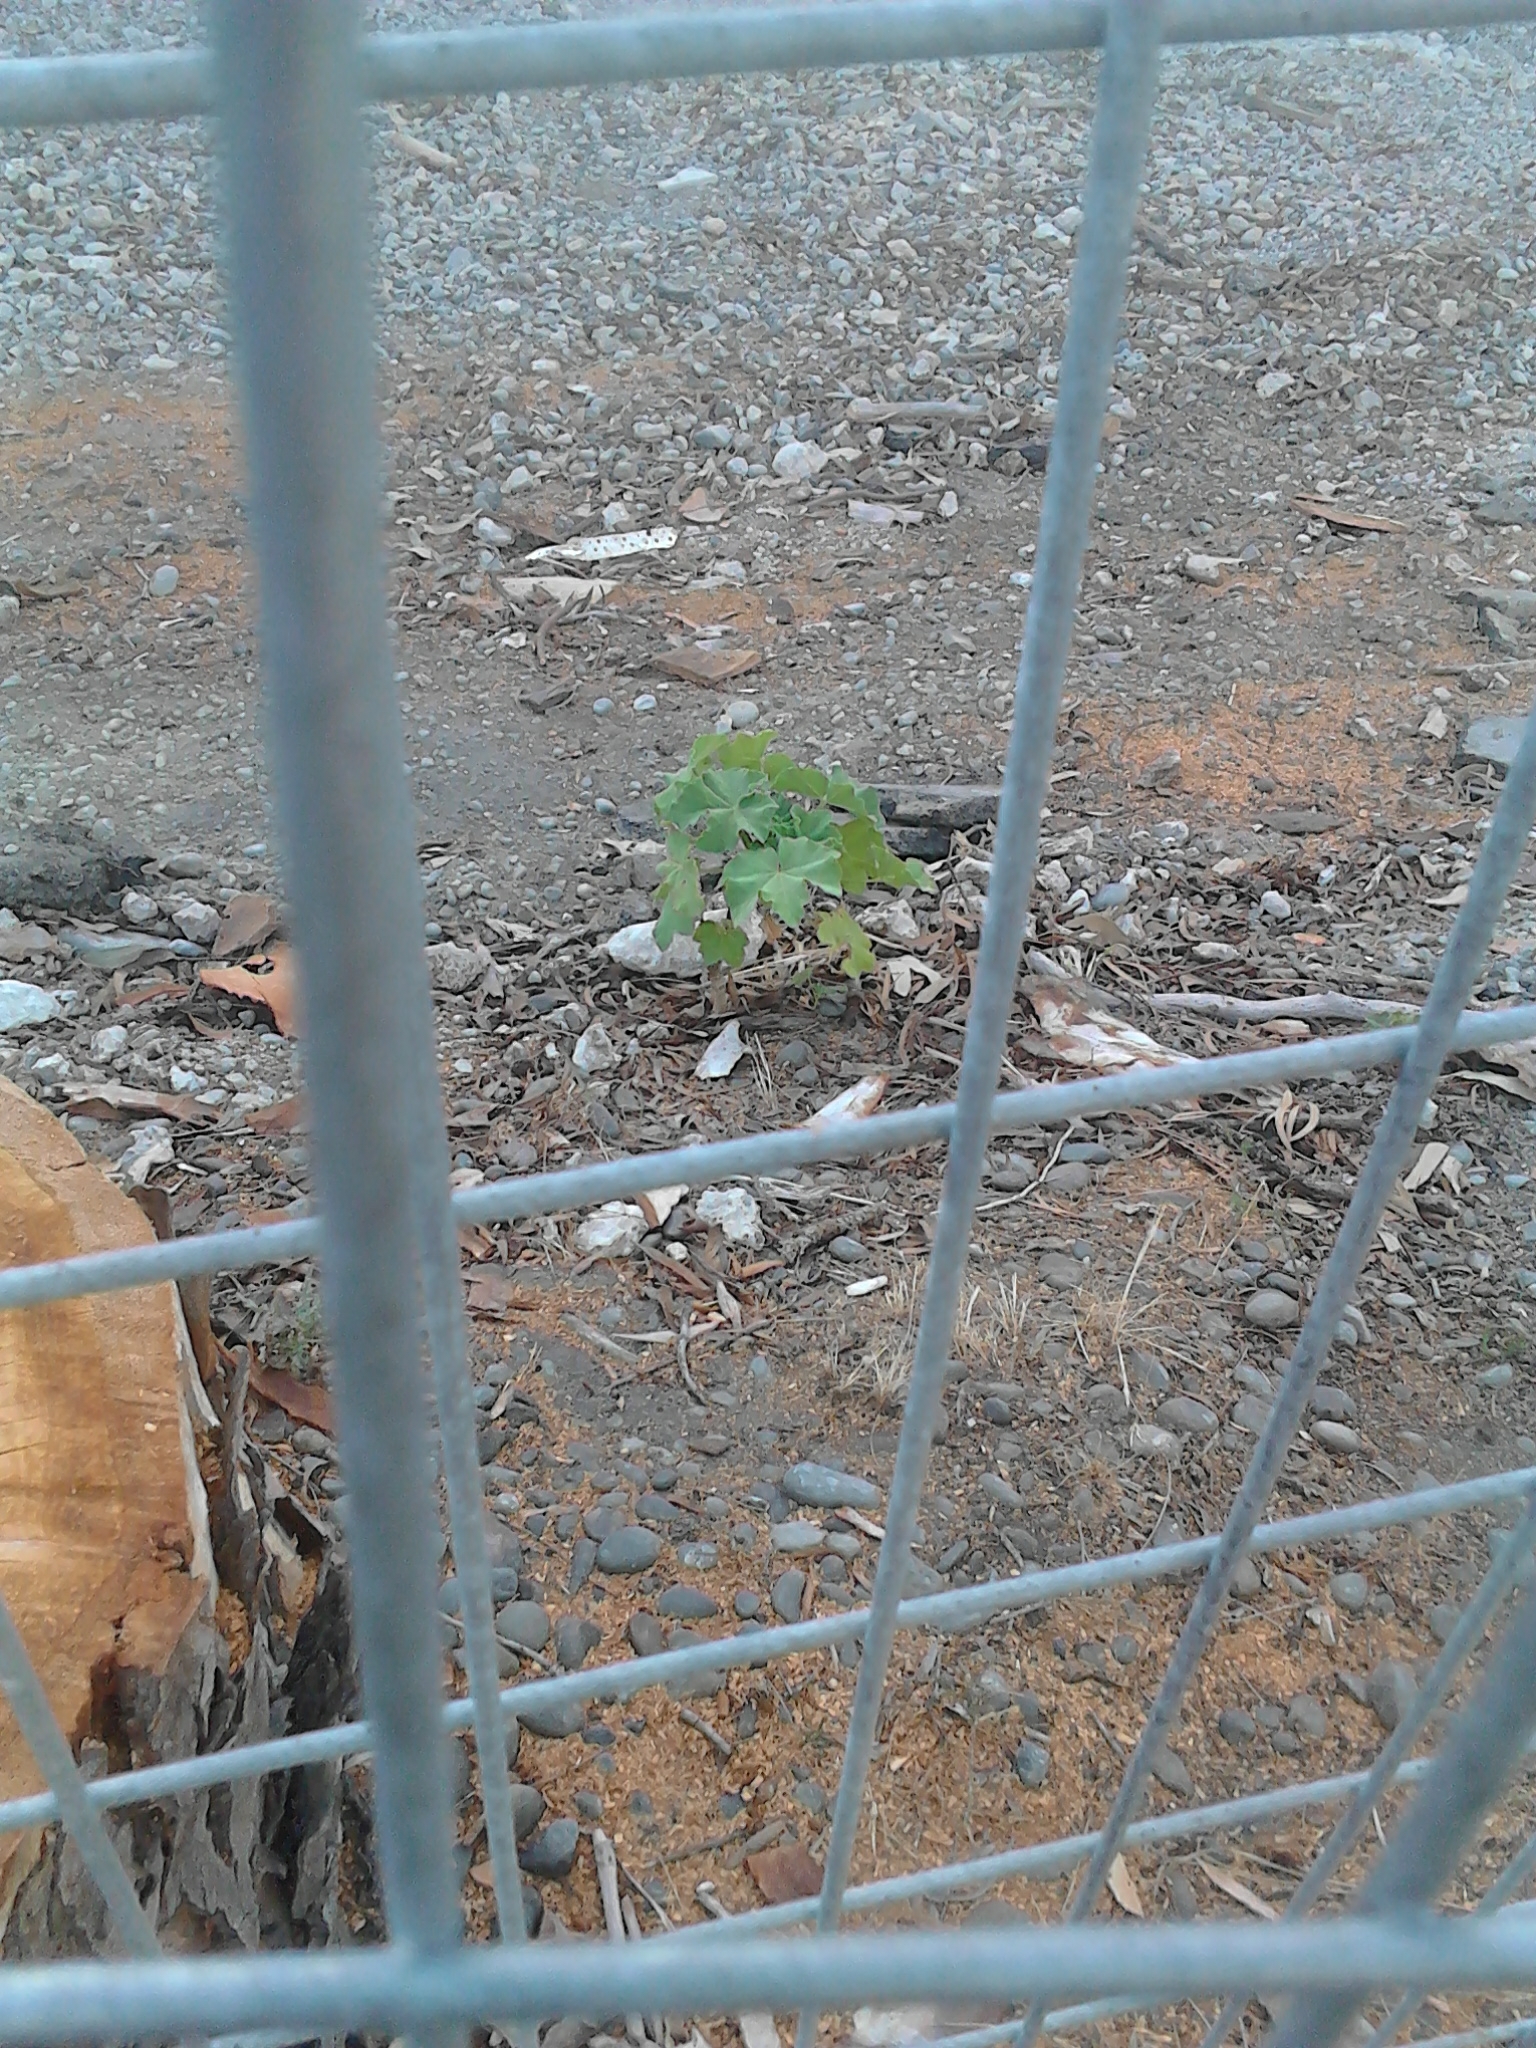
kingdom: Plantae
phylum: Tracheophyta
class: Magnoliopsida
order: Malvales
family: Malvaceae
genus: Malva
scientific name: Malva arborea
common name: Tree mallow
